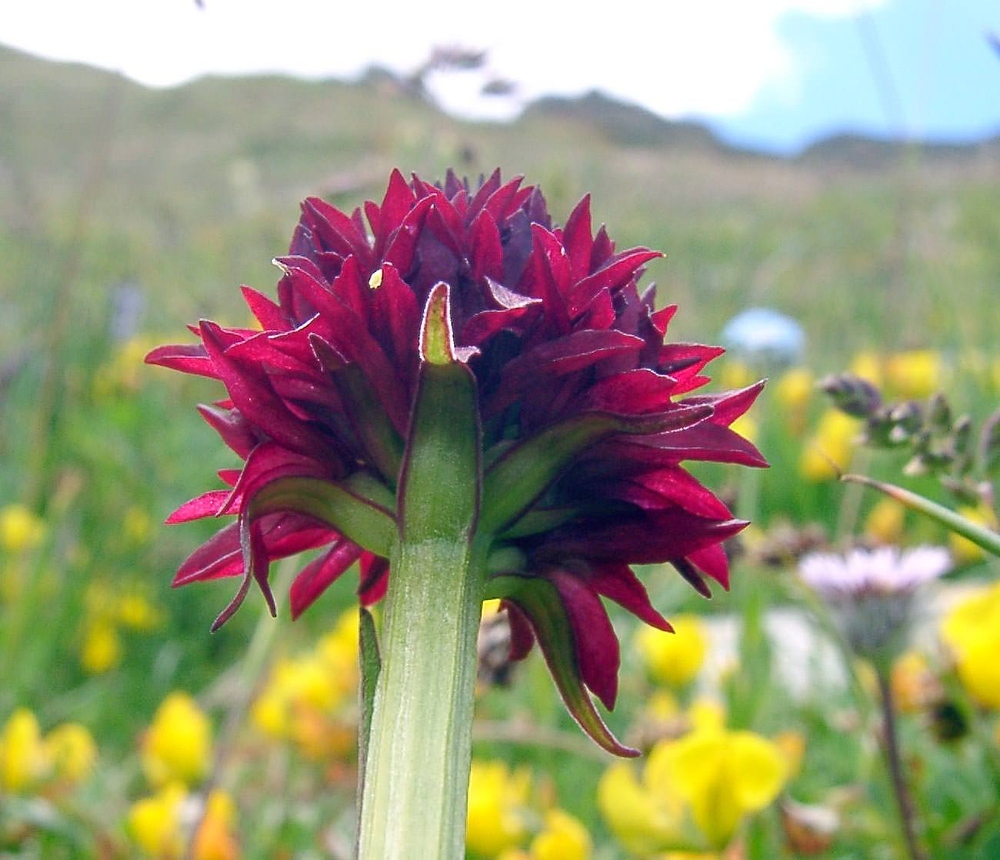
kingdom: Plantae
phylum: Tracheophyta
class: Liliopsida
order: Asparagales
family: Orchidaceae
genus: Gymnadenia
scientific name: Gymnadenia austriaca
